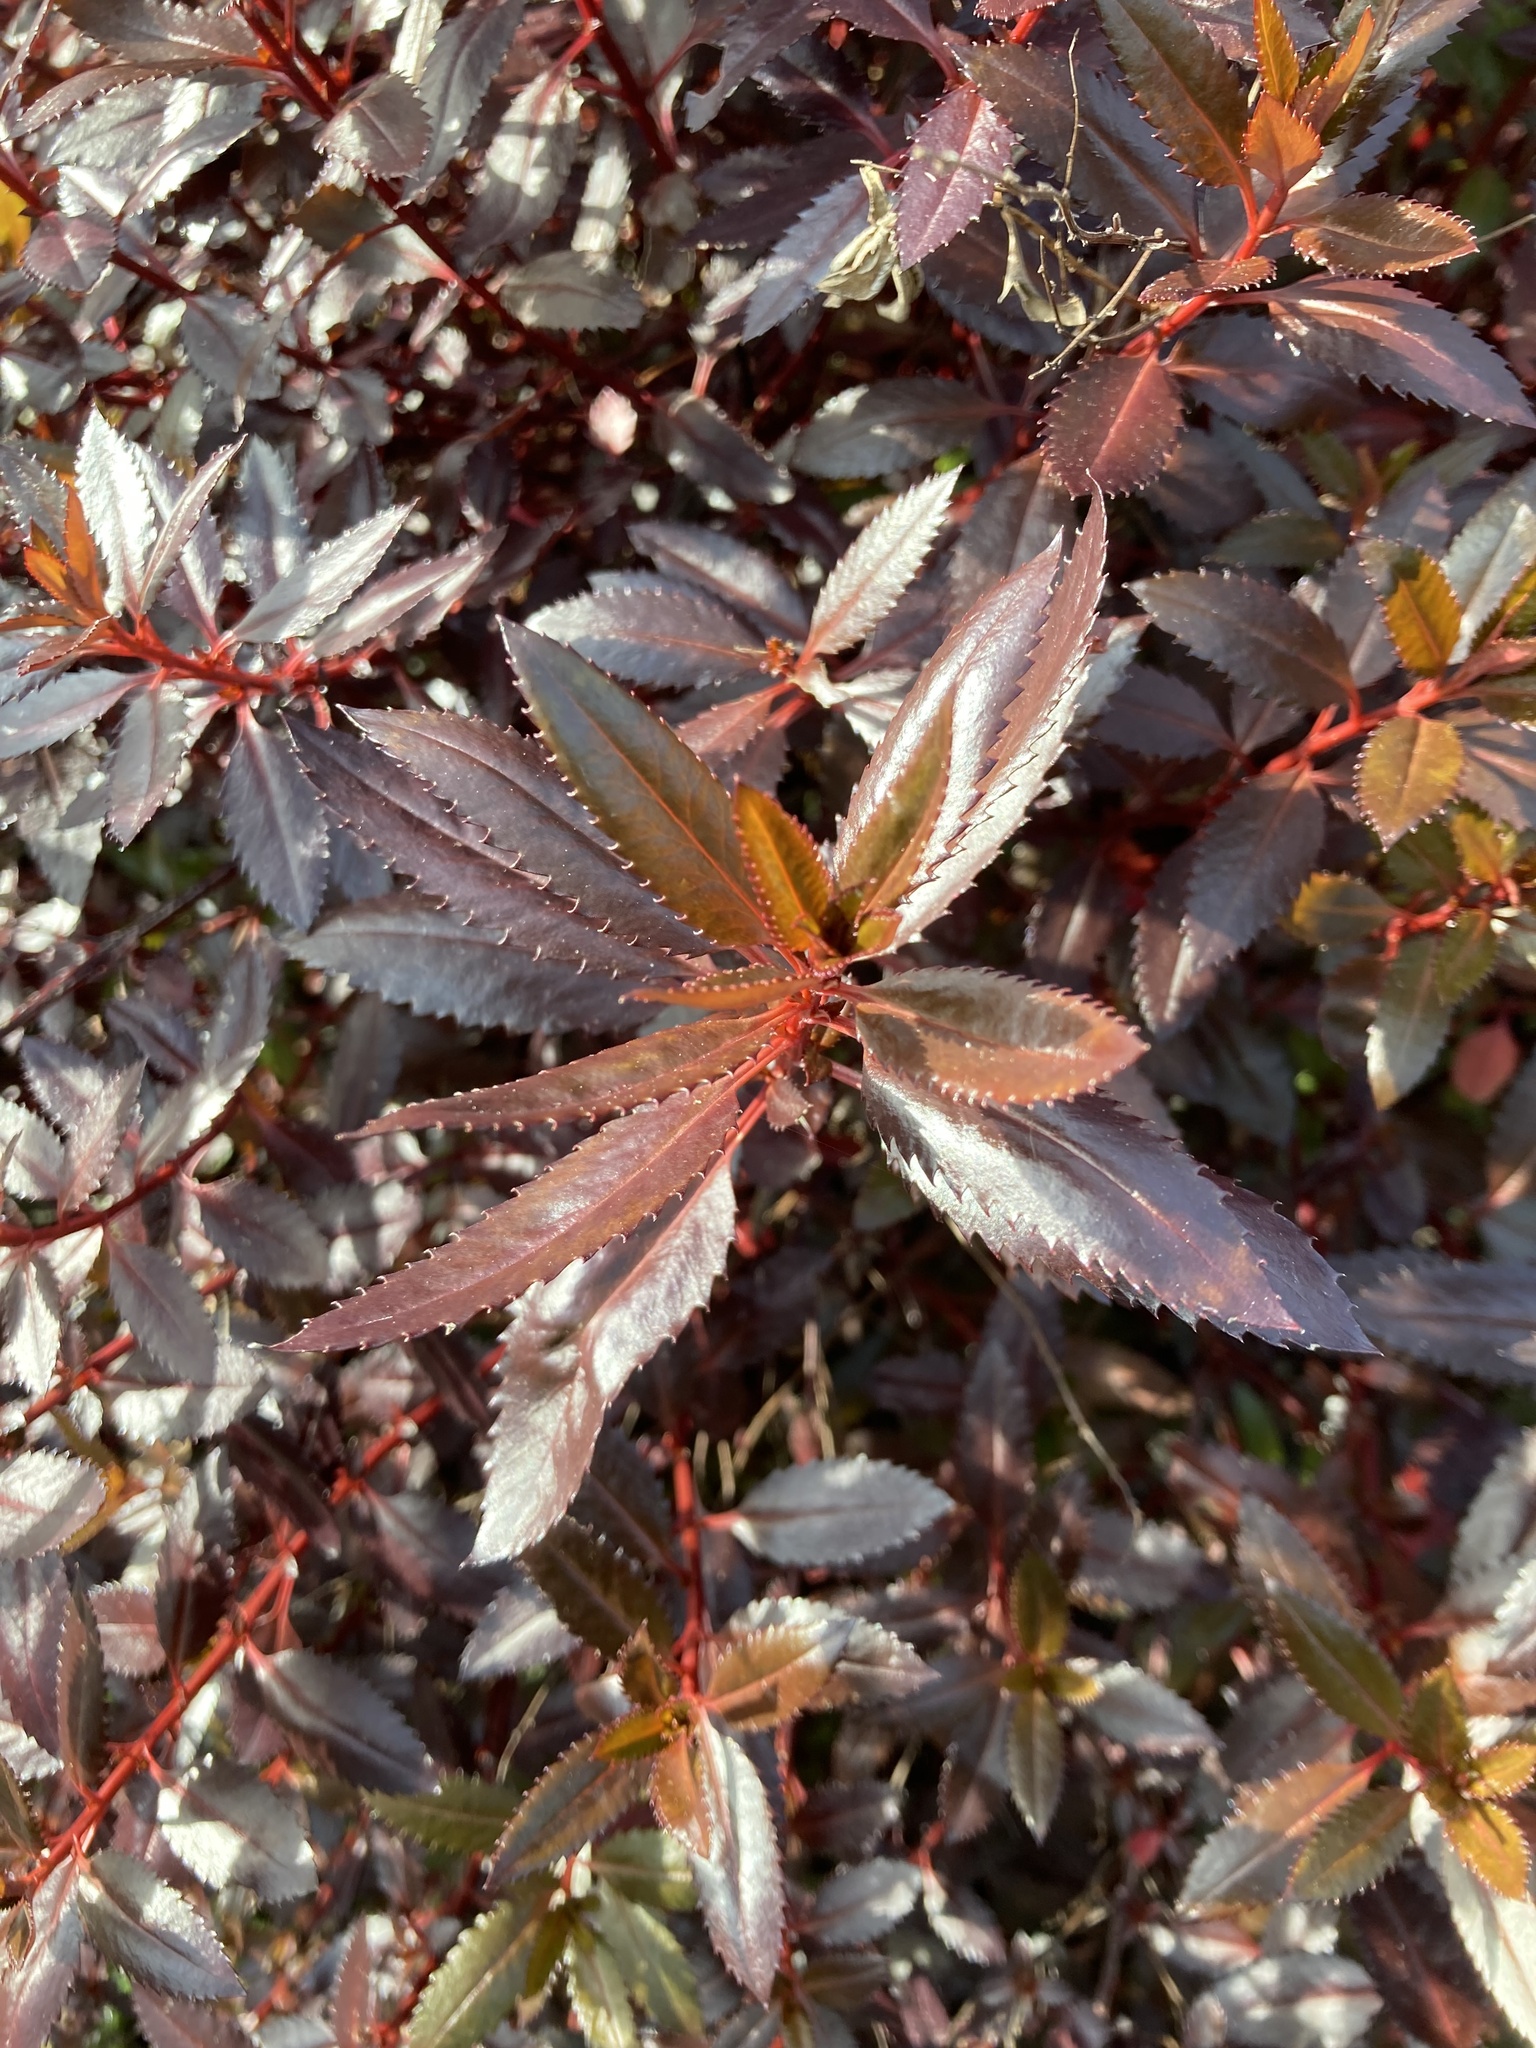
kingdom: Plantae
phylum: Tracheophyta
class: Magnoliopsida
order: Saxifragales
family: Haloragaceae
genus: Haloragis
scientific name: Haloragis erecta
